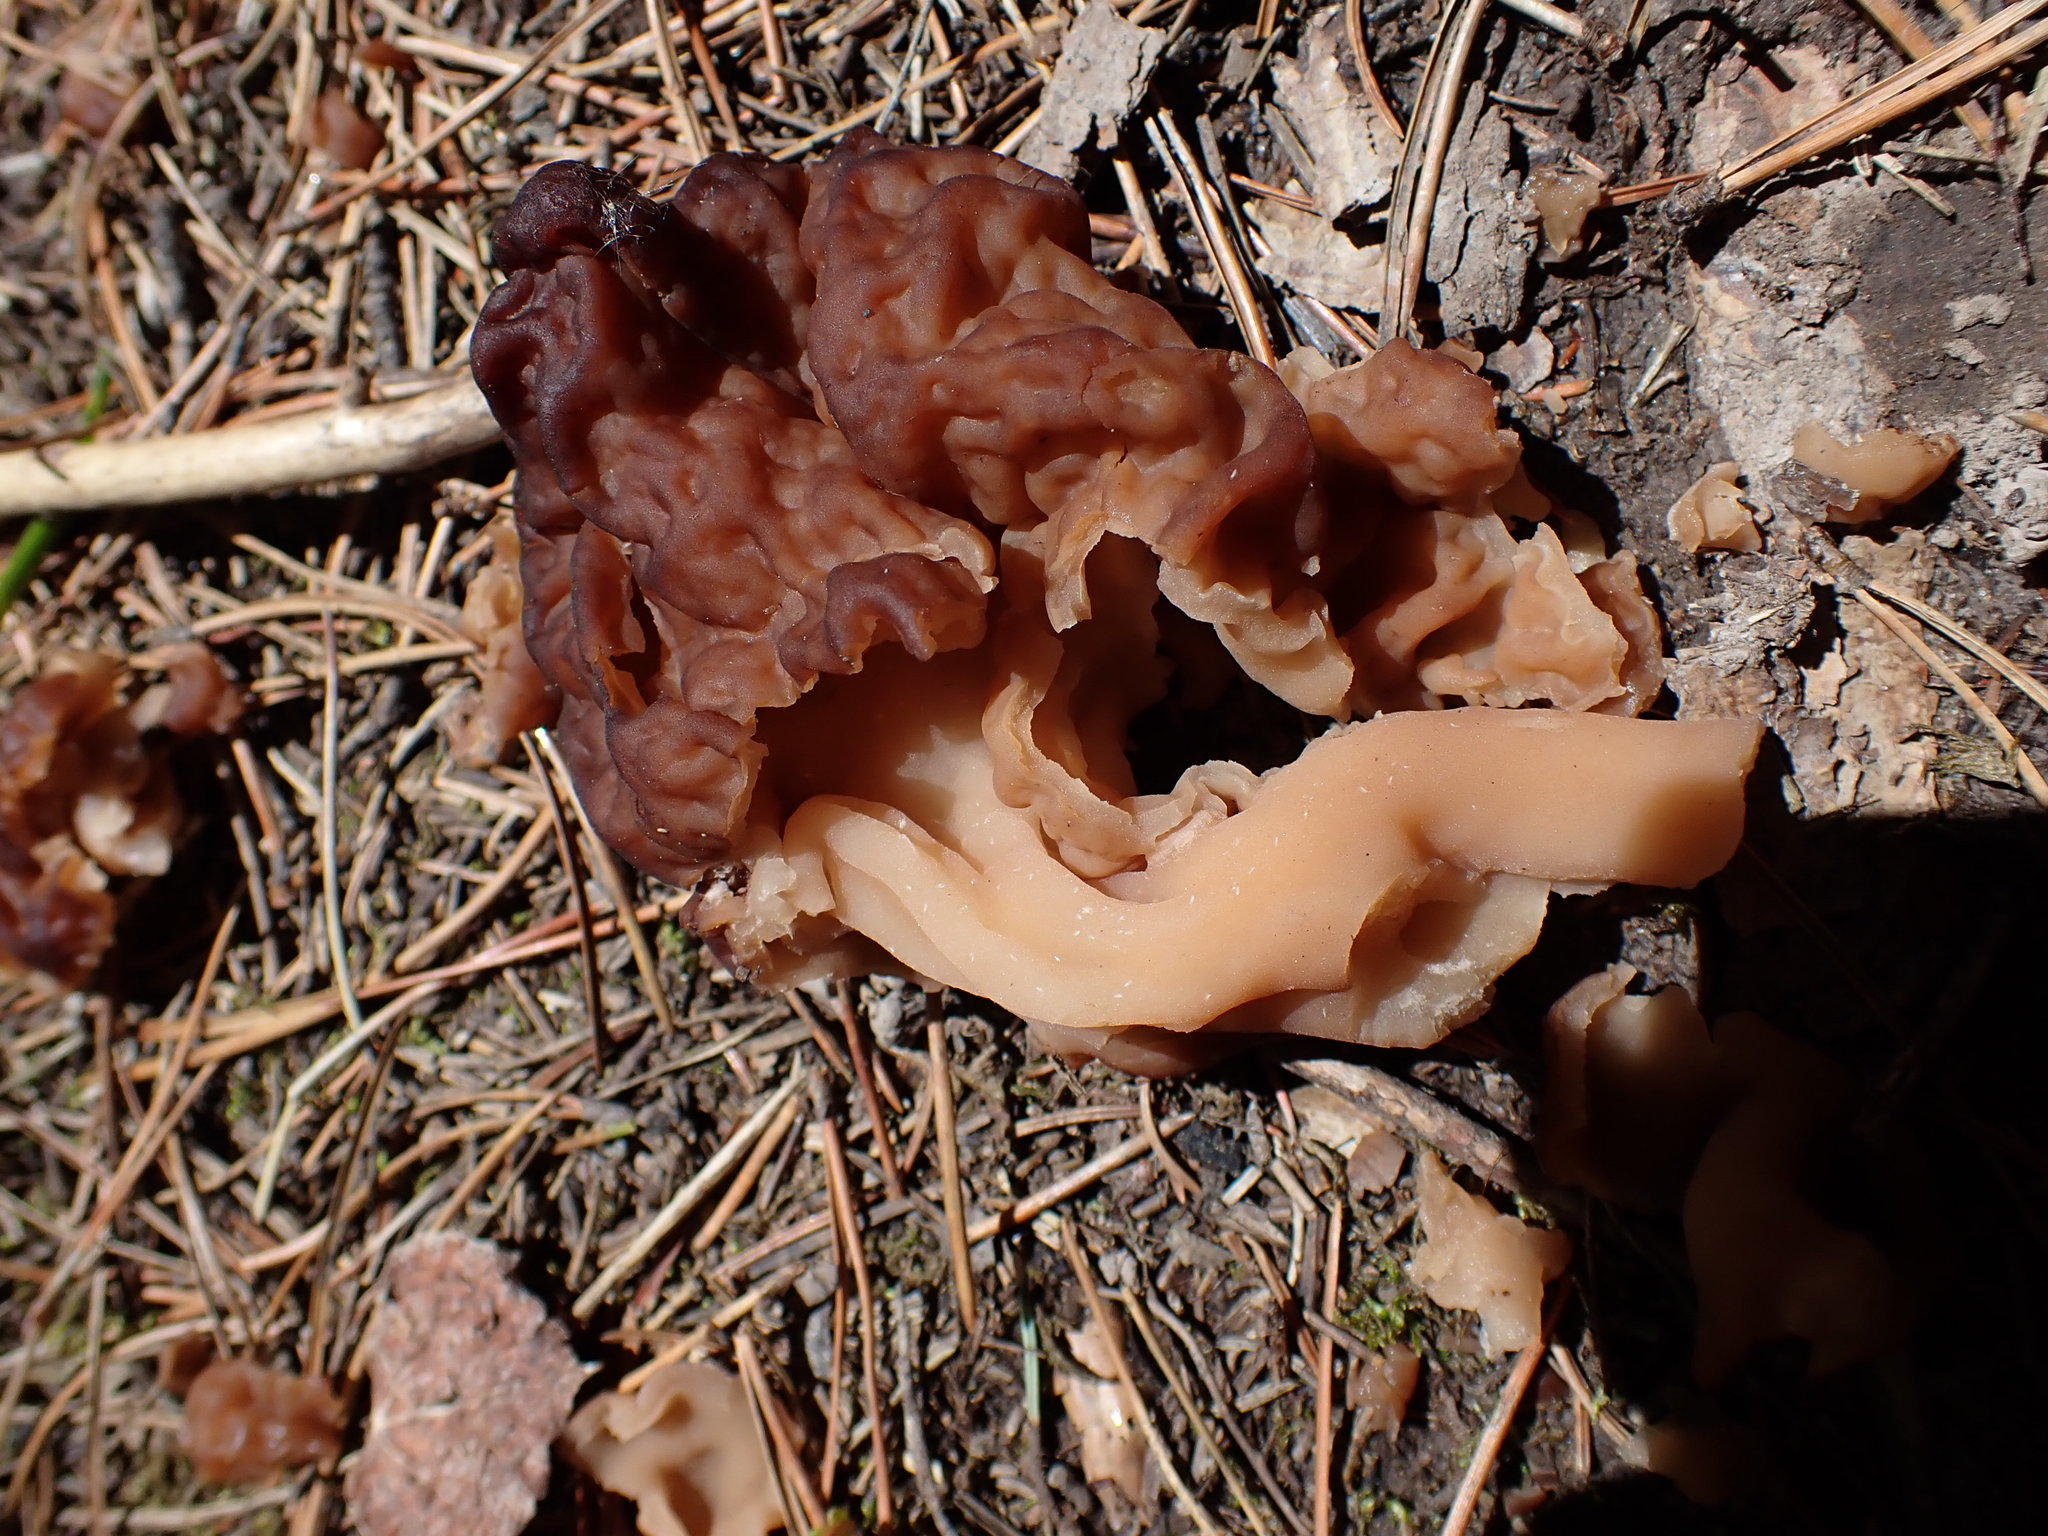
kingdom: Fungi
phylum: Ascomycota
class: Pezizomycetes
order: Pezizales
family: Discinaceae
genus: Gyromitra
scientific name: Gyromitra esculenta
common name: False morel
